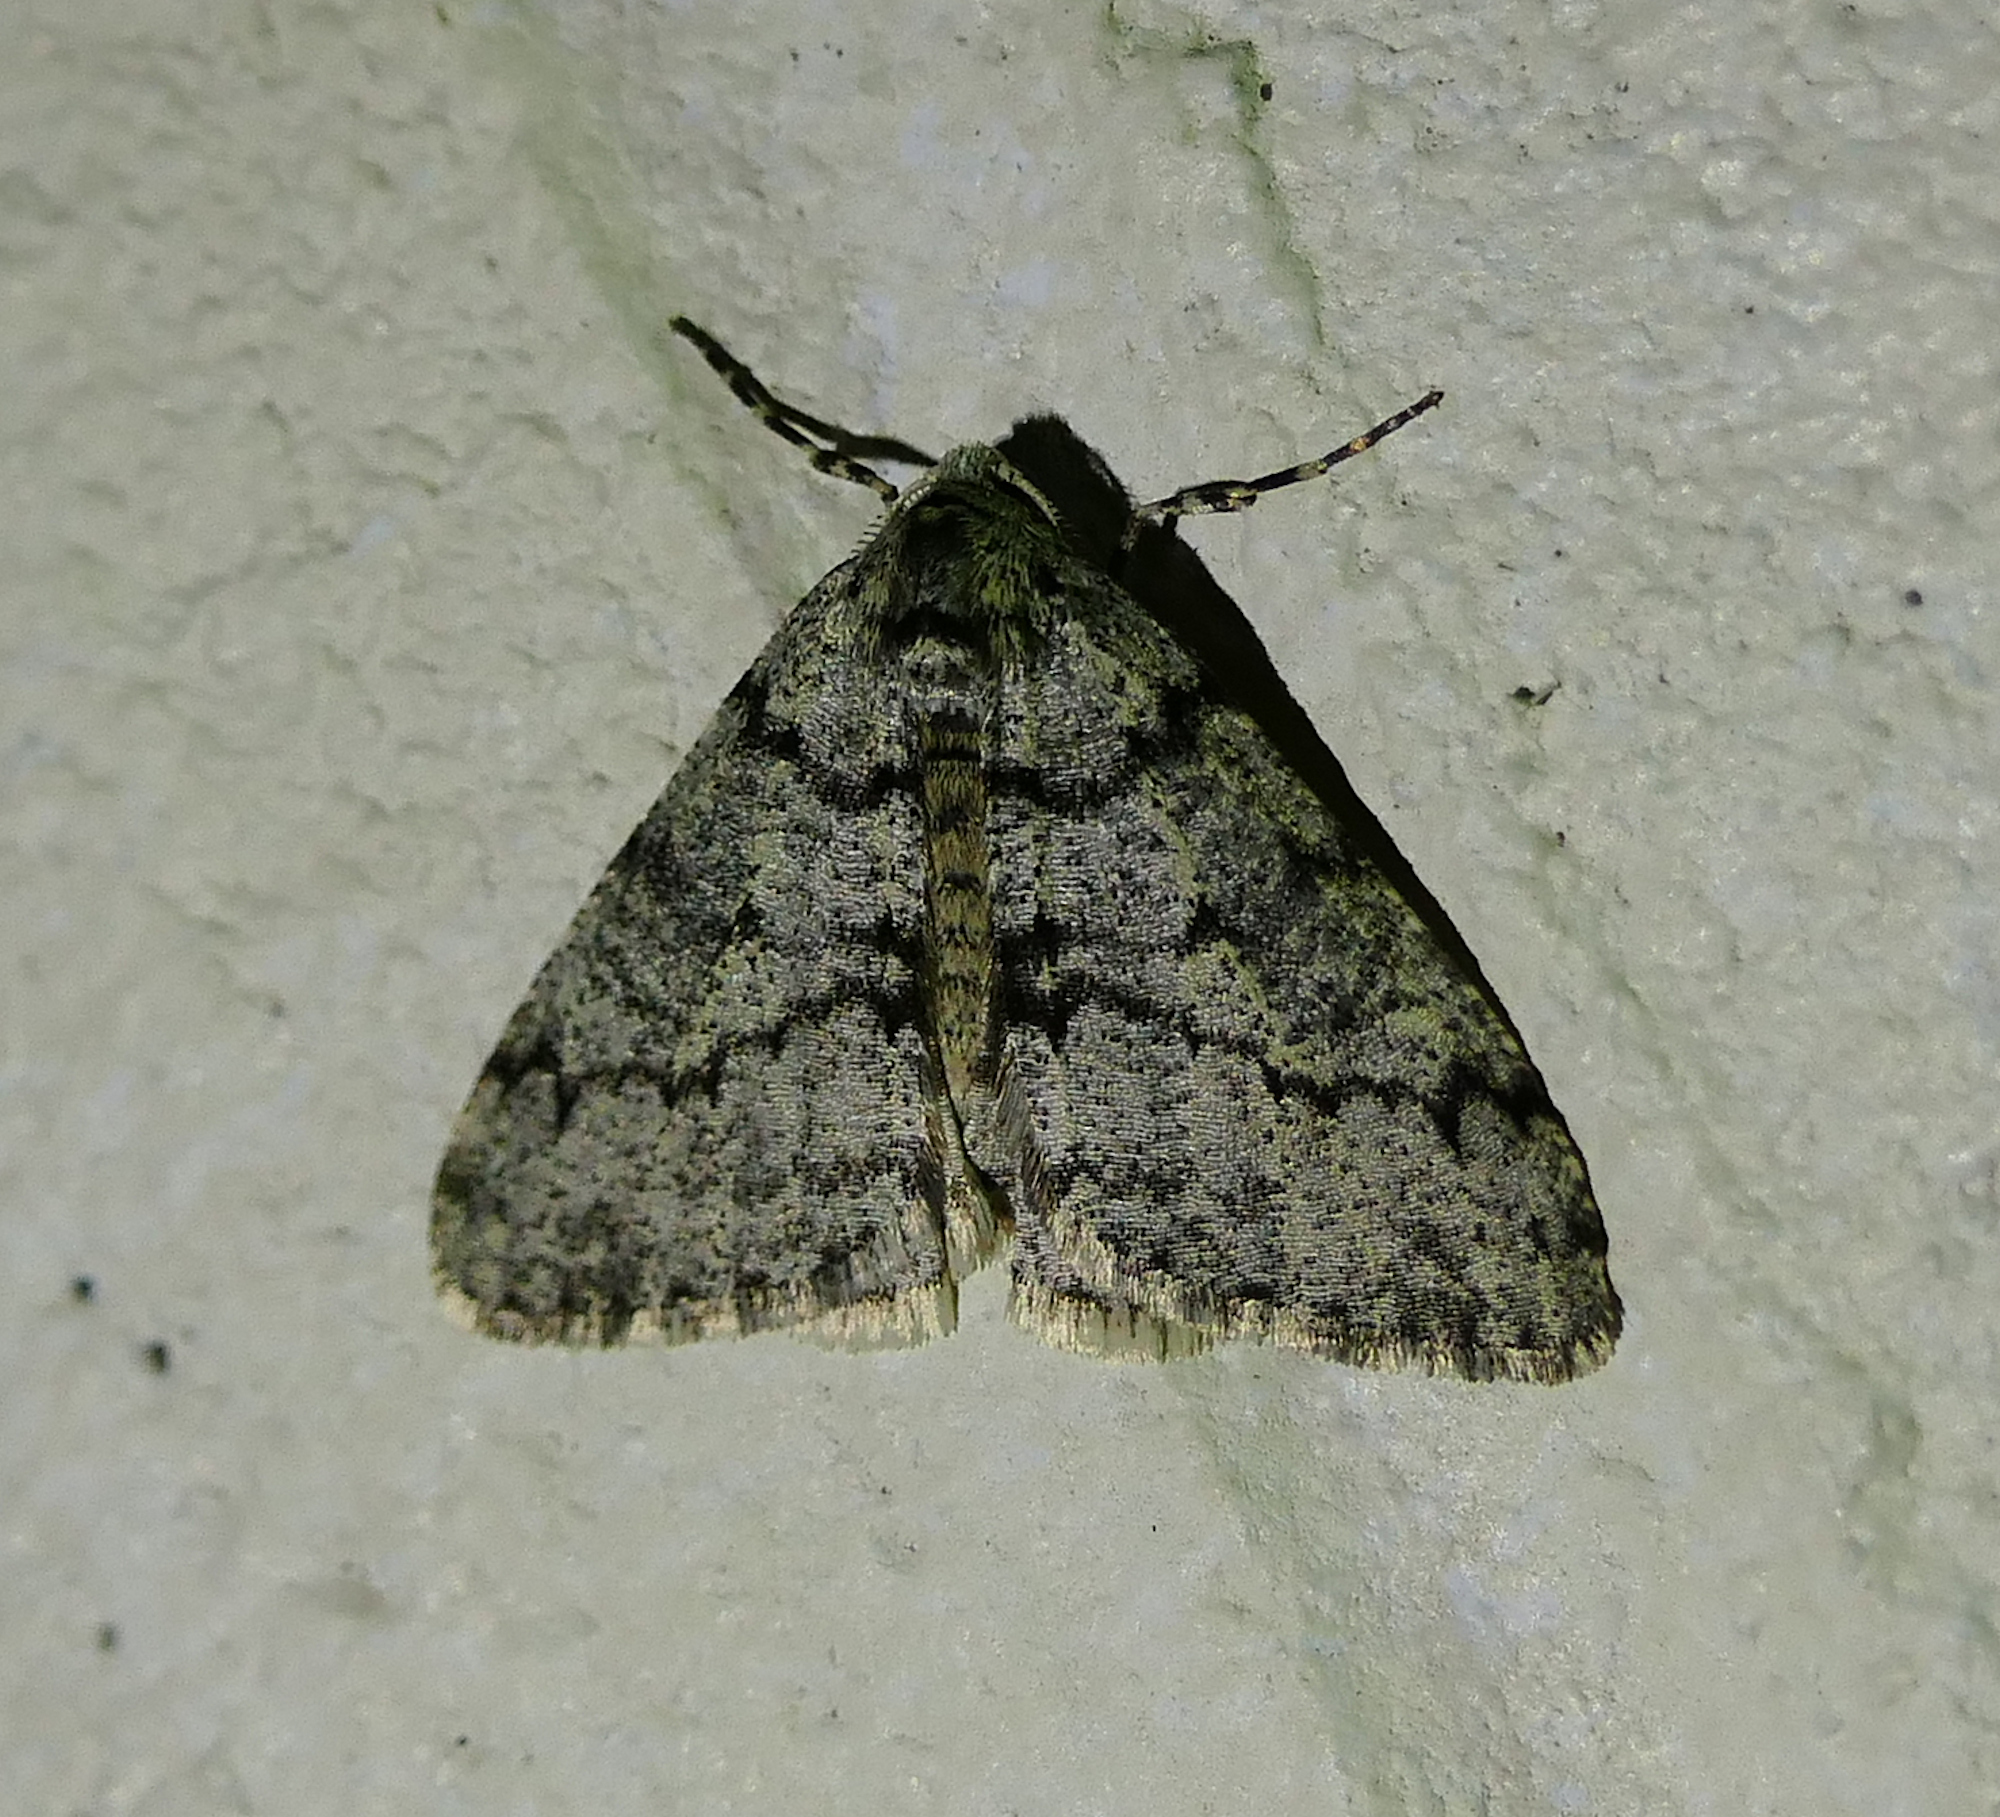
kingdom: Animalia
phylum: Arthropoda
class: Insecta
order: Lepidoptera
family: Geometridae
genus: Phigalia
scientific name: Phigalia strigataria
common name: Small phigalia
